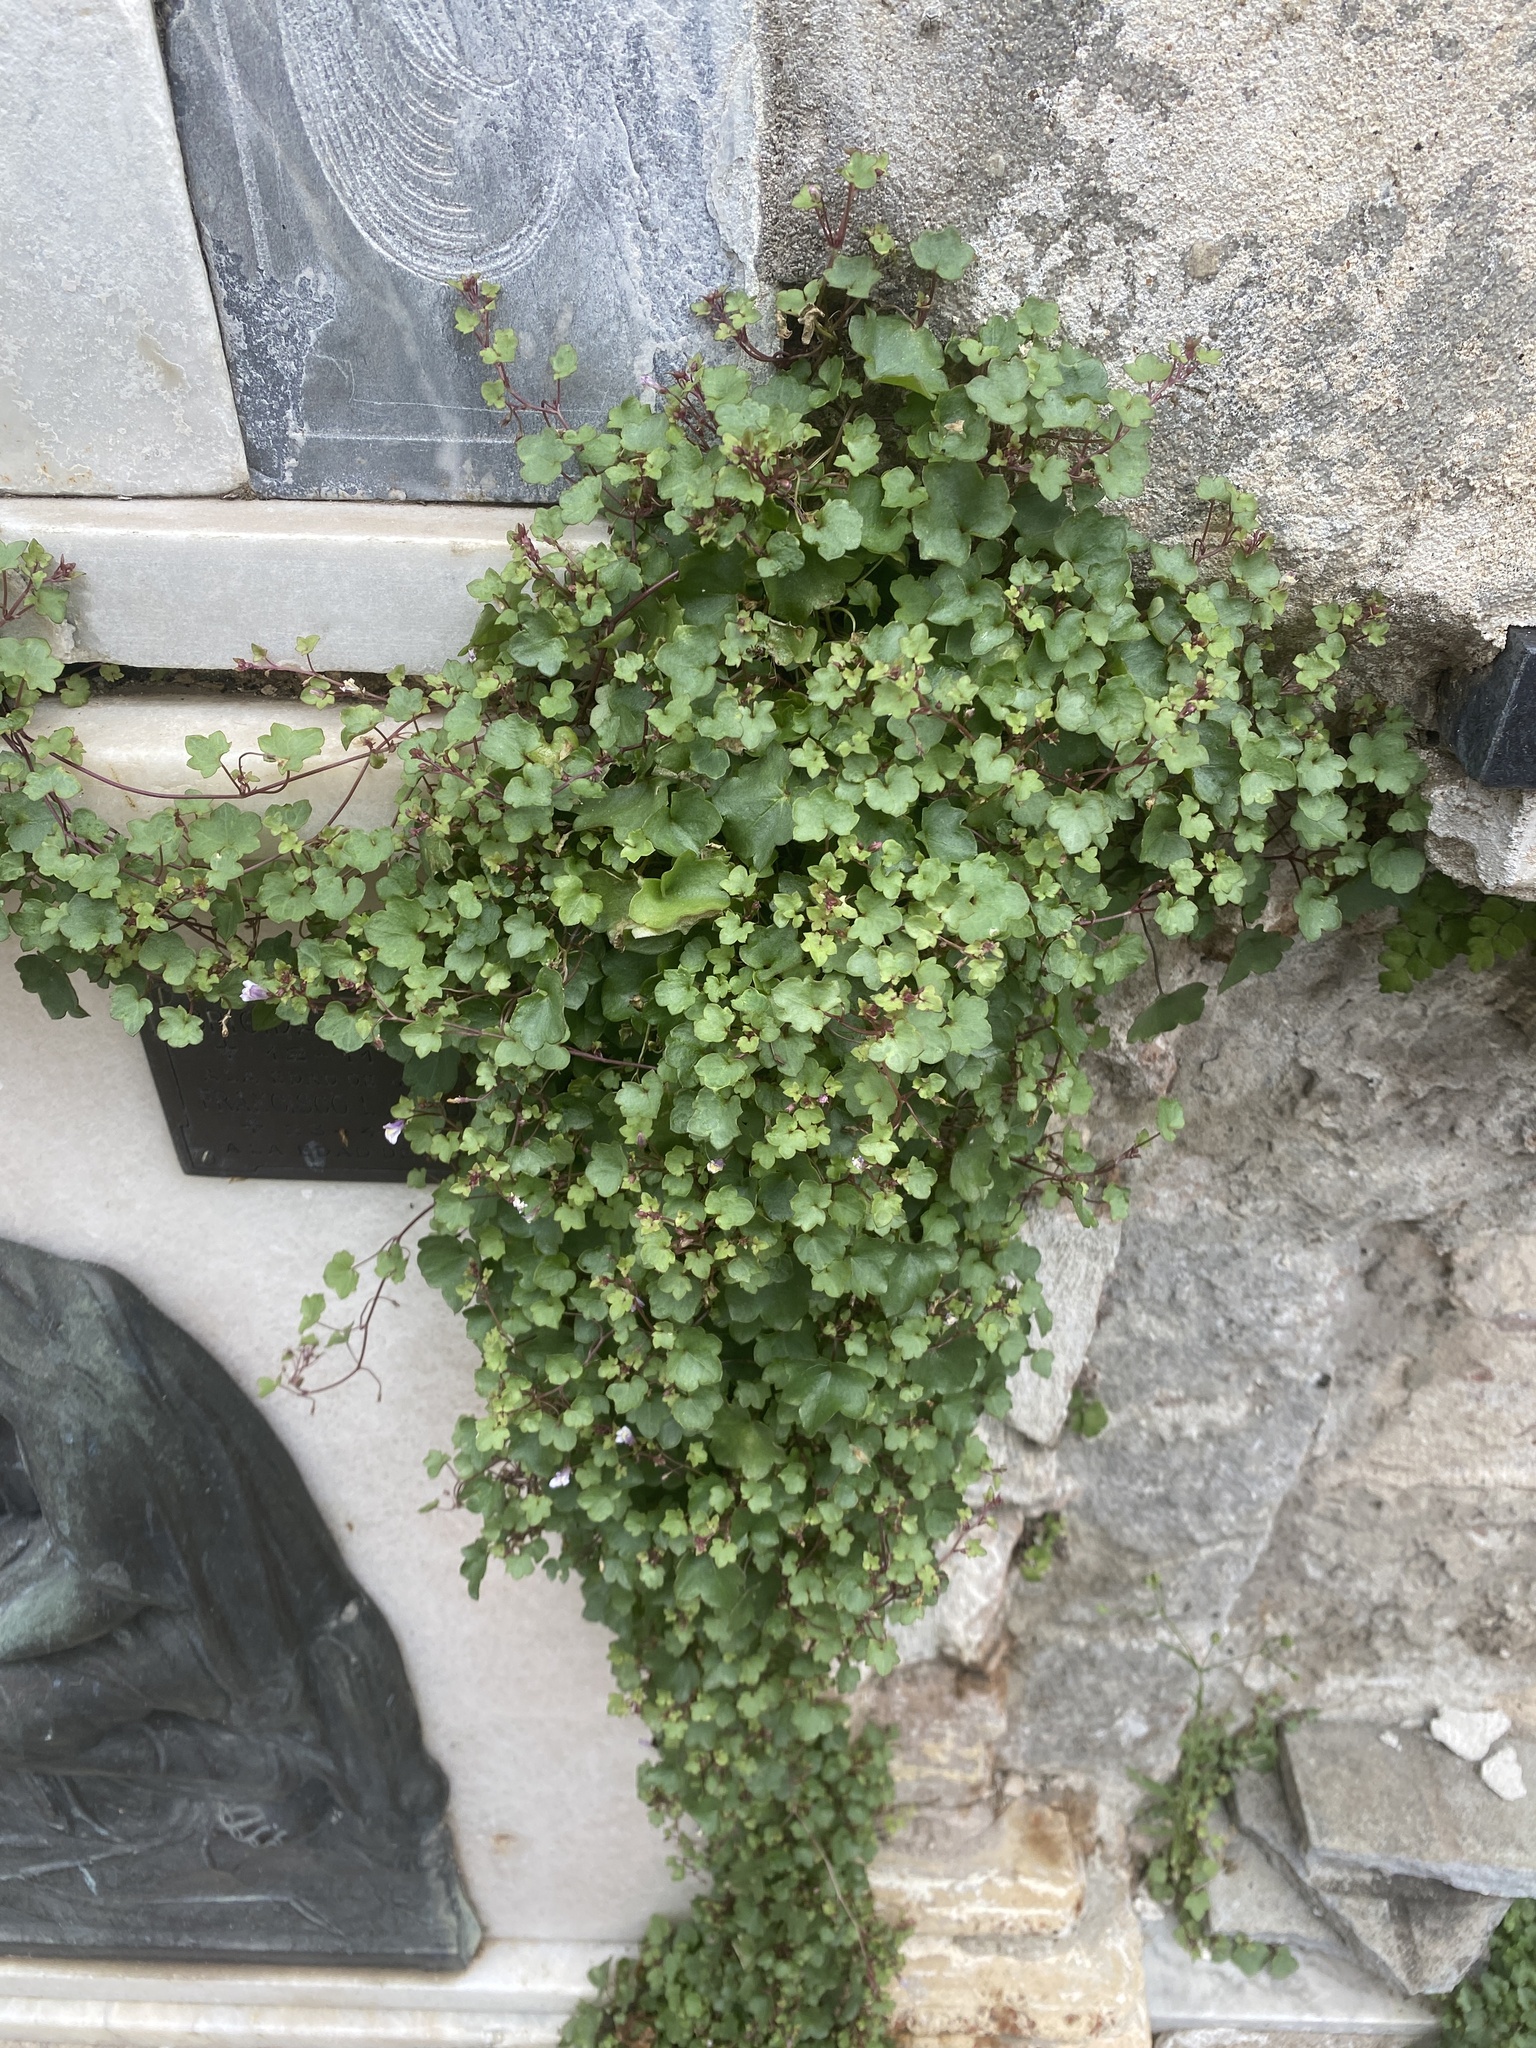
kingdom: Plantae
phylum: Tracheophyta
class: Magnoliopsida
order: Lamiales
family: Plantaginaceae
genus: Cymbalaria
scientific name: Cymbalaria muralis
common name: Ivy-leaved toadflax
